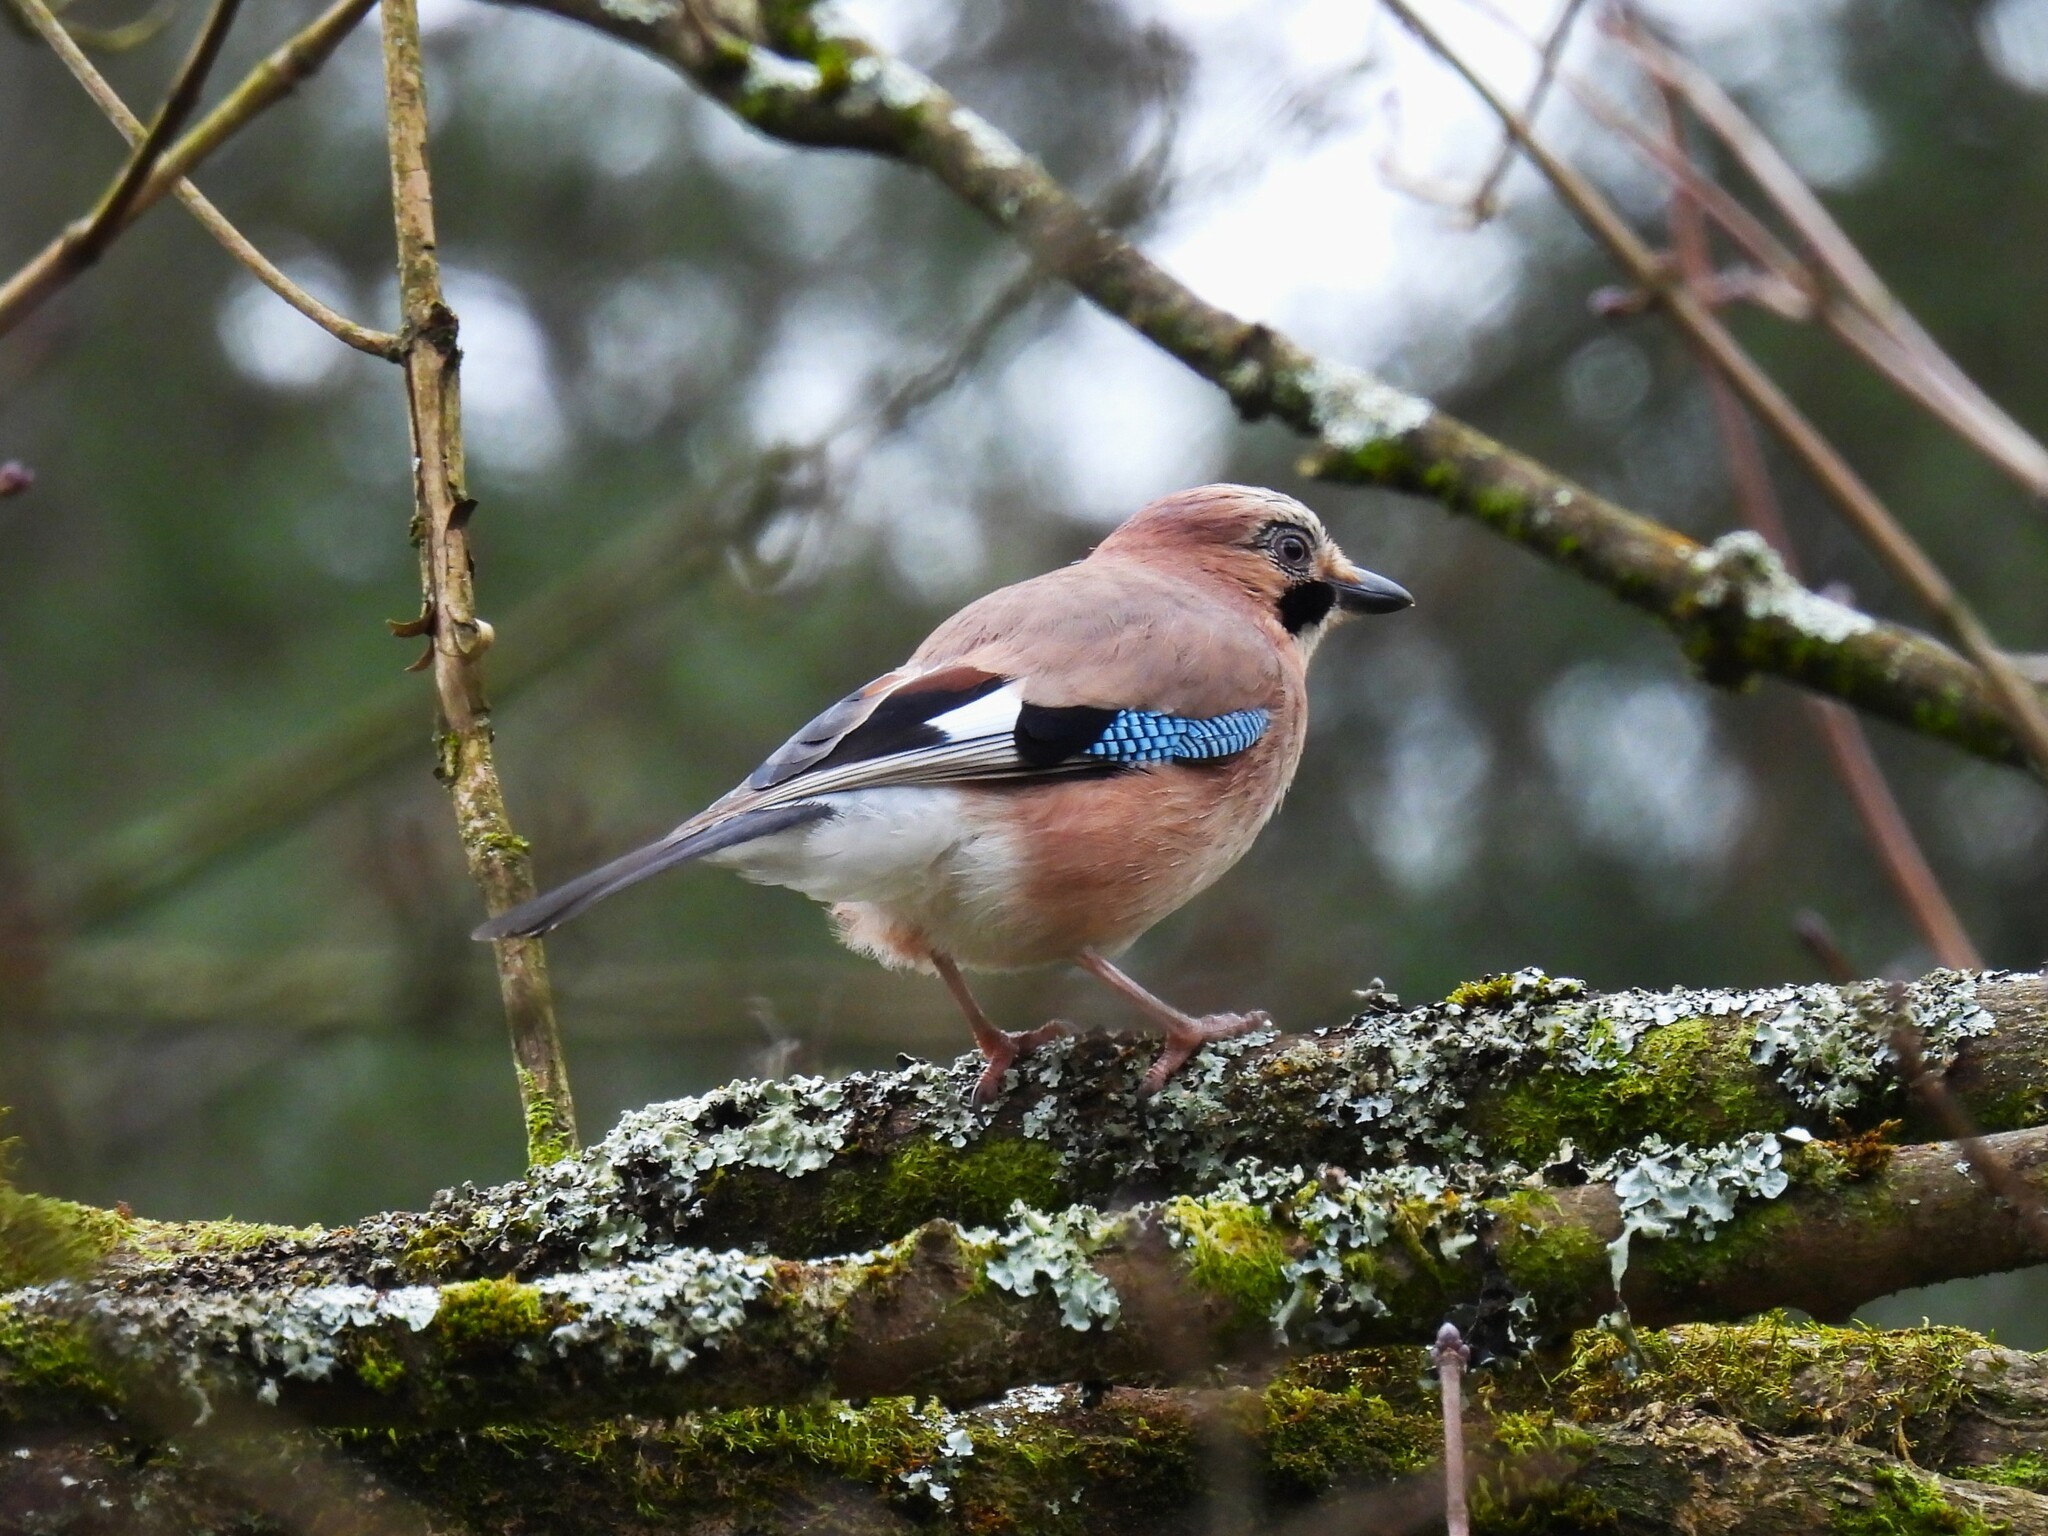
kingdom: Animalia
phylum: Chordata
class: Aves
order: Passeriformes
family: Corvidae
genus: Garrulus
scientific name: Garrulus glandarius
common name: Eurasian jay
